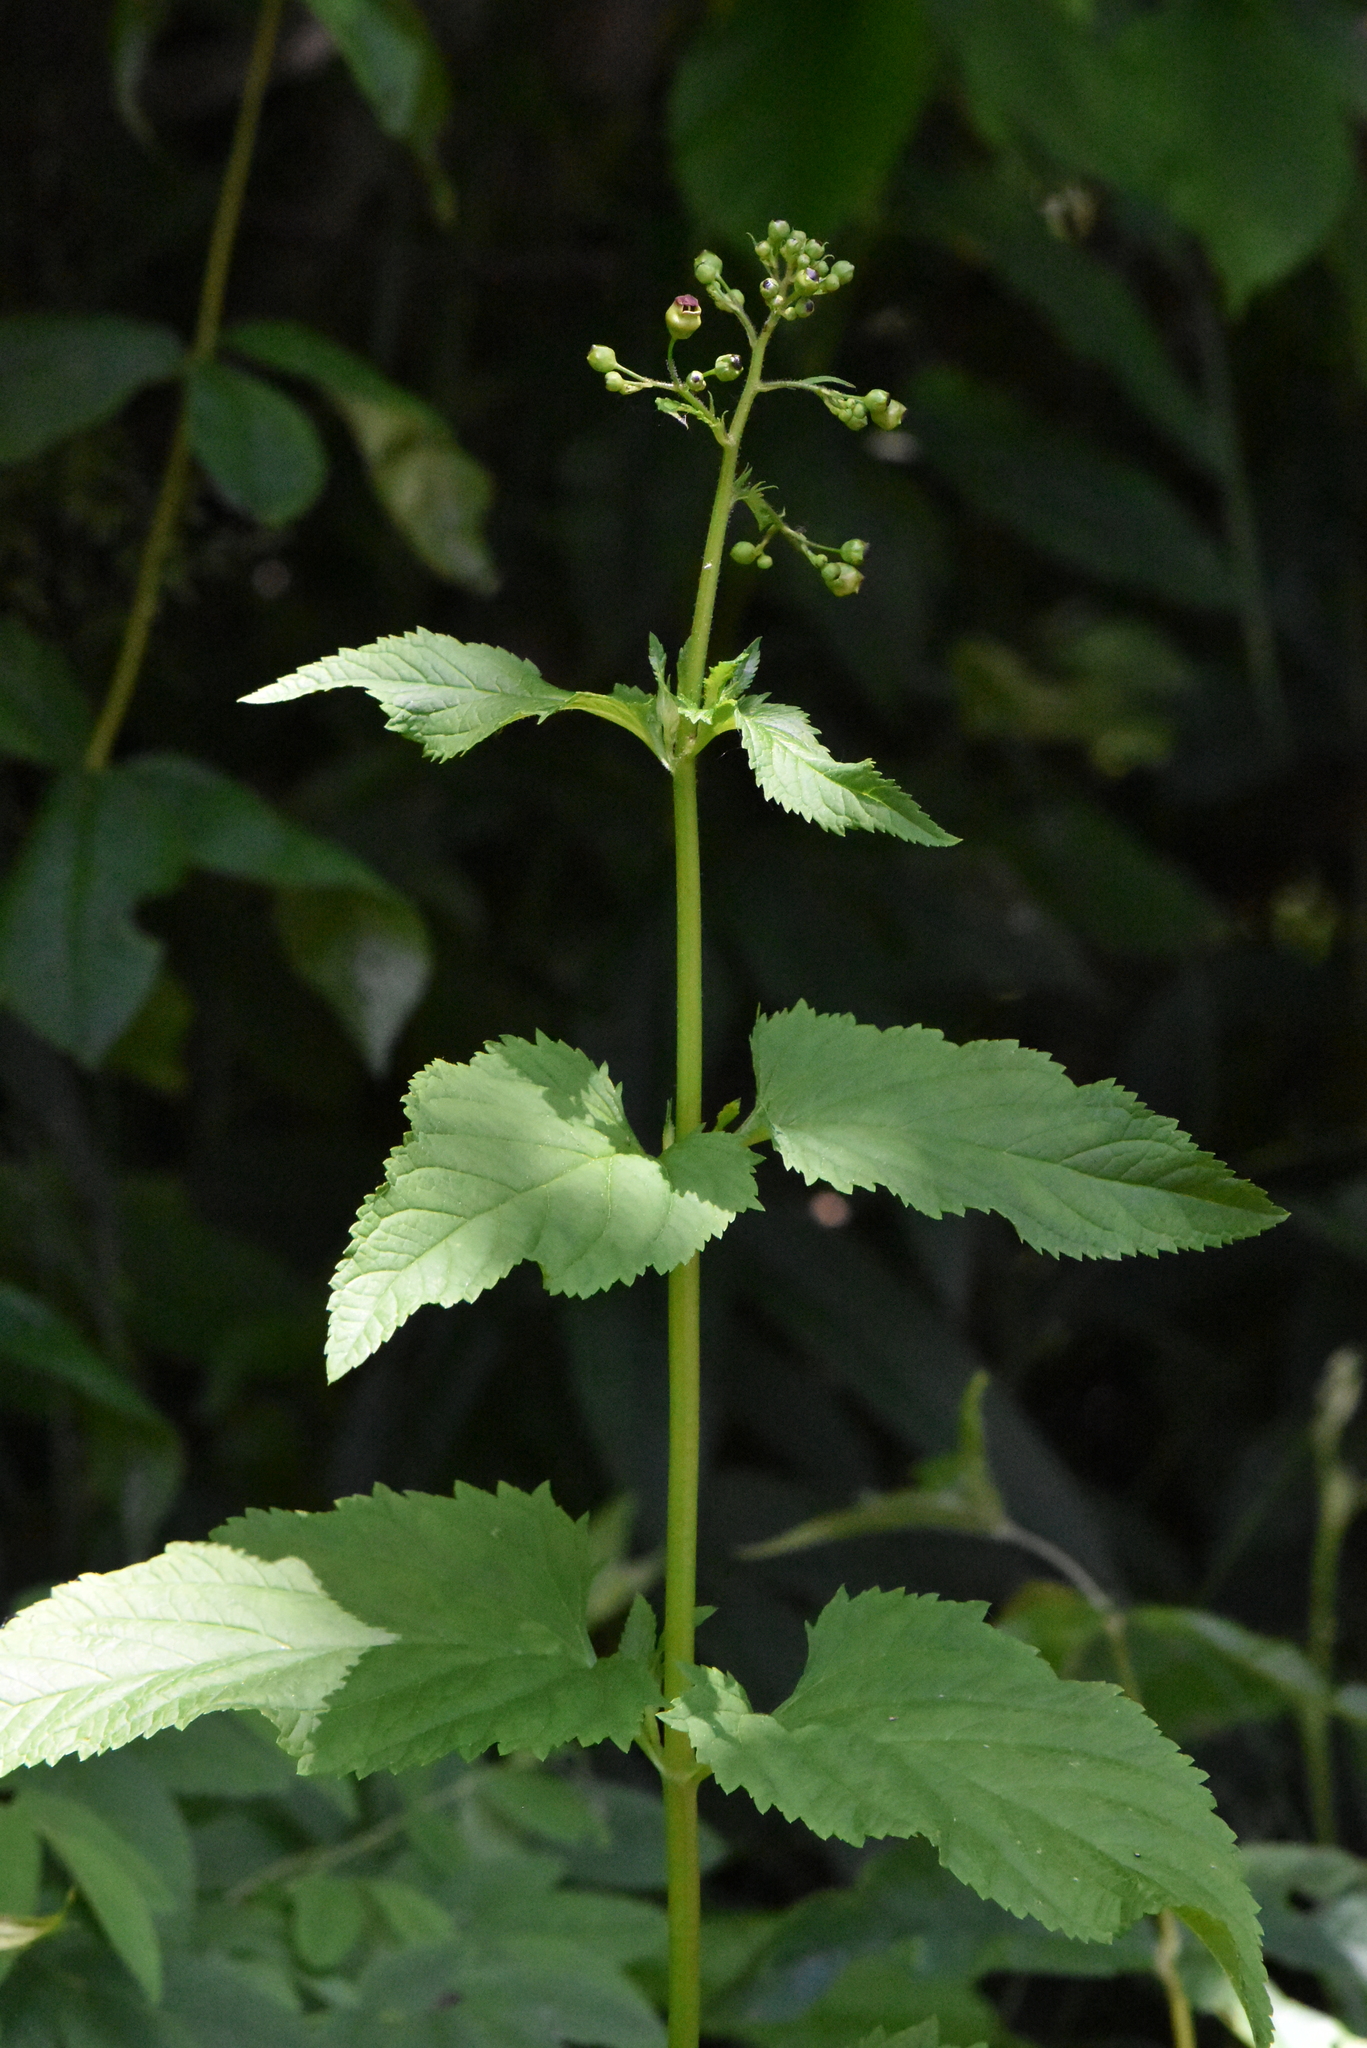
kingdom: Plantae
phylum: Tracheophyta
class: Magnoliopsida
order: Lamiales
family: Scrophulariaceae
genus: Scrophularia
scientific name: Scrophularia nodosa
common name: Common figwort
